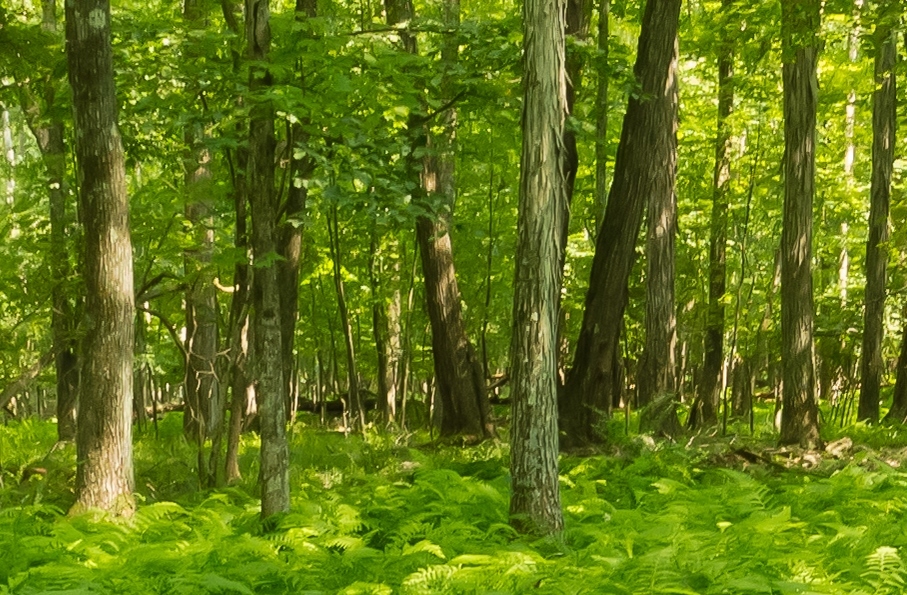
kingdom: Plantae
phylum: Tracheophyta
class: Magnoliopsida
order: Fagales
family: Juglandaceae
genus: Carya
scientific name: Carya ovata
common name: Shagbark hickory
